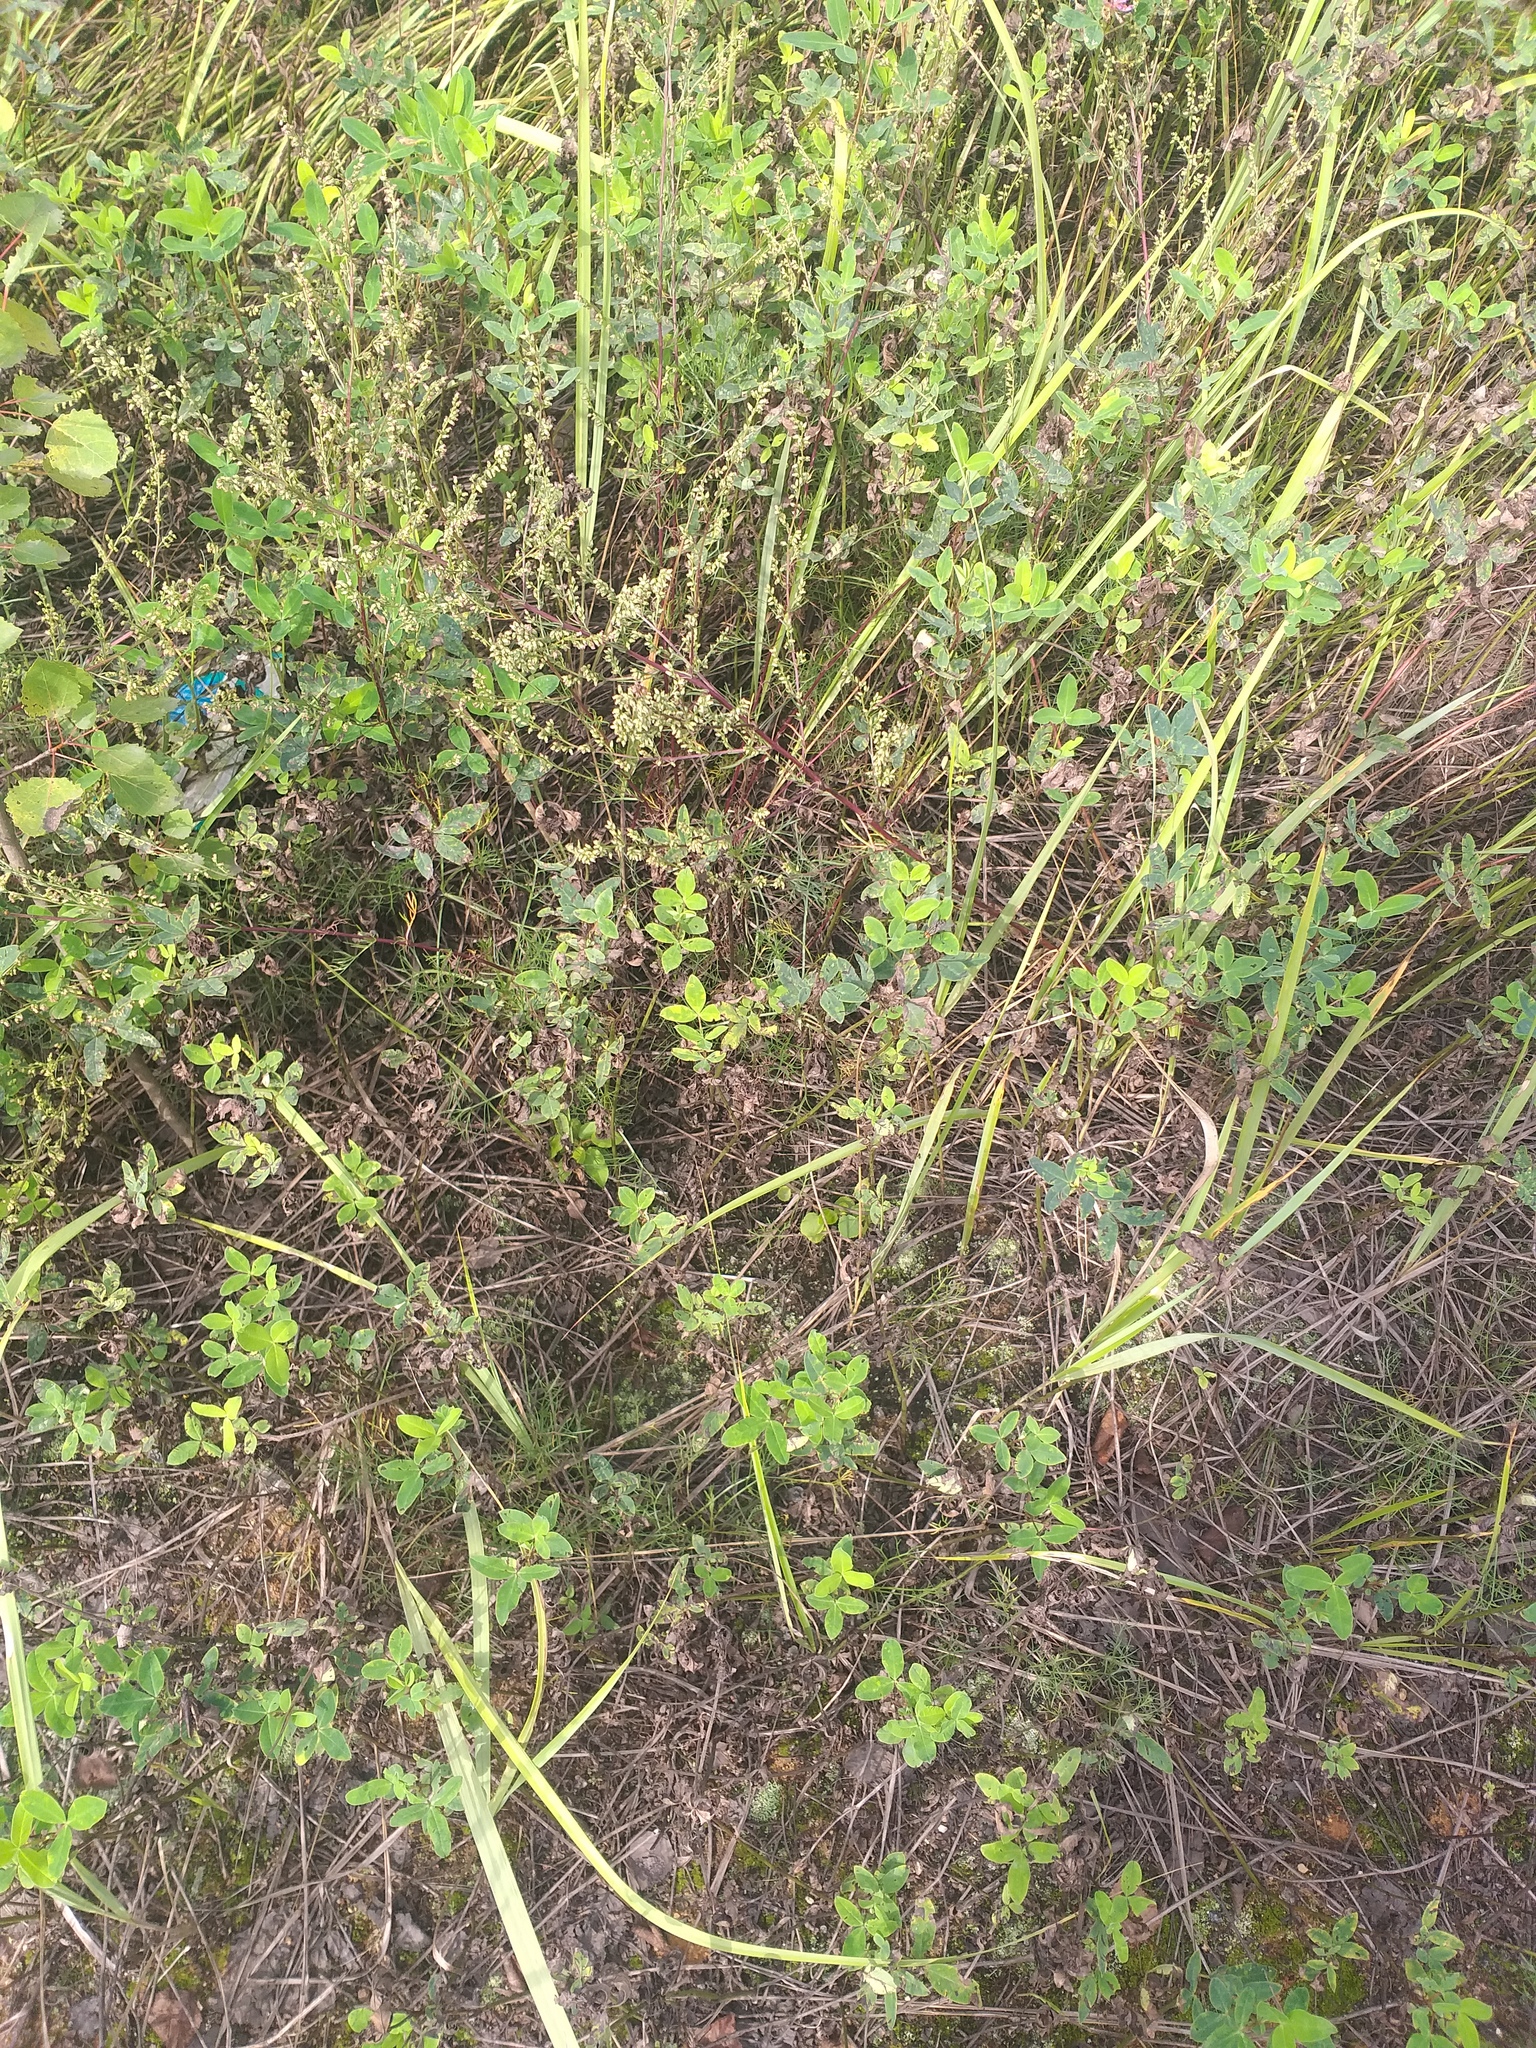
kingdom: Plantae
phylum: Tracheophyta
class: Magnoliopsida
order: Fabales
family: Fabaceae
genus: Trifolium
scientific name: Trifolium medium
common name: Zigzag clover
